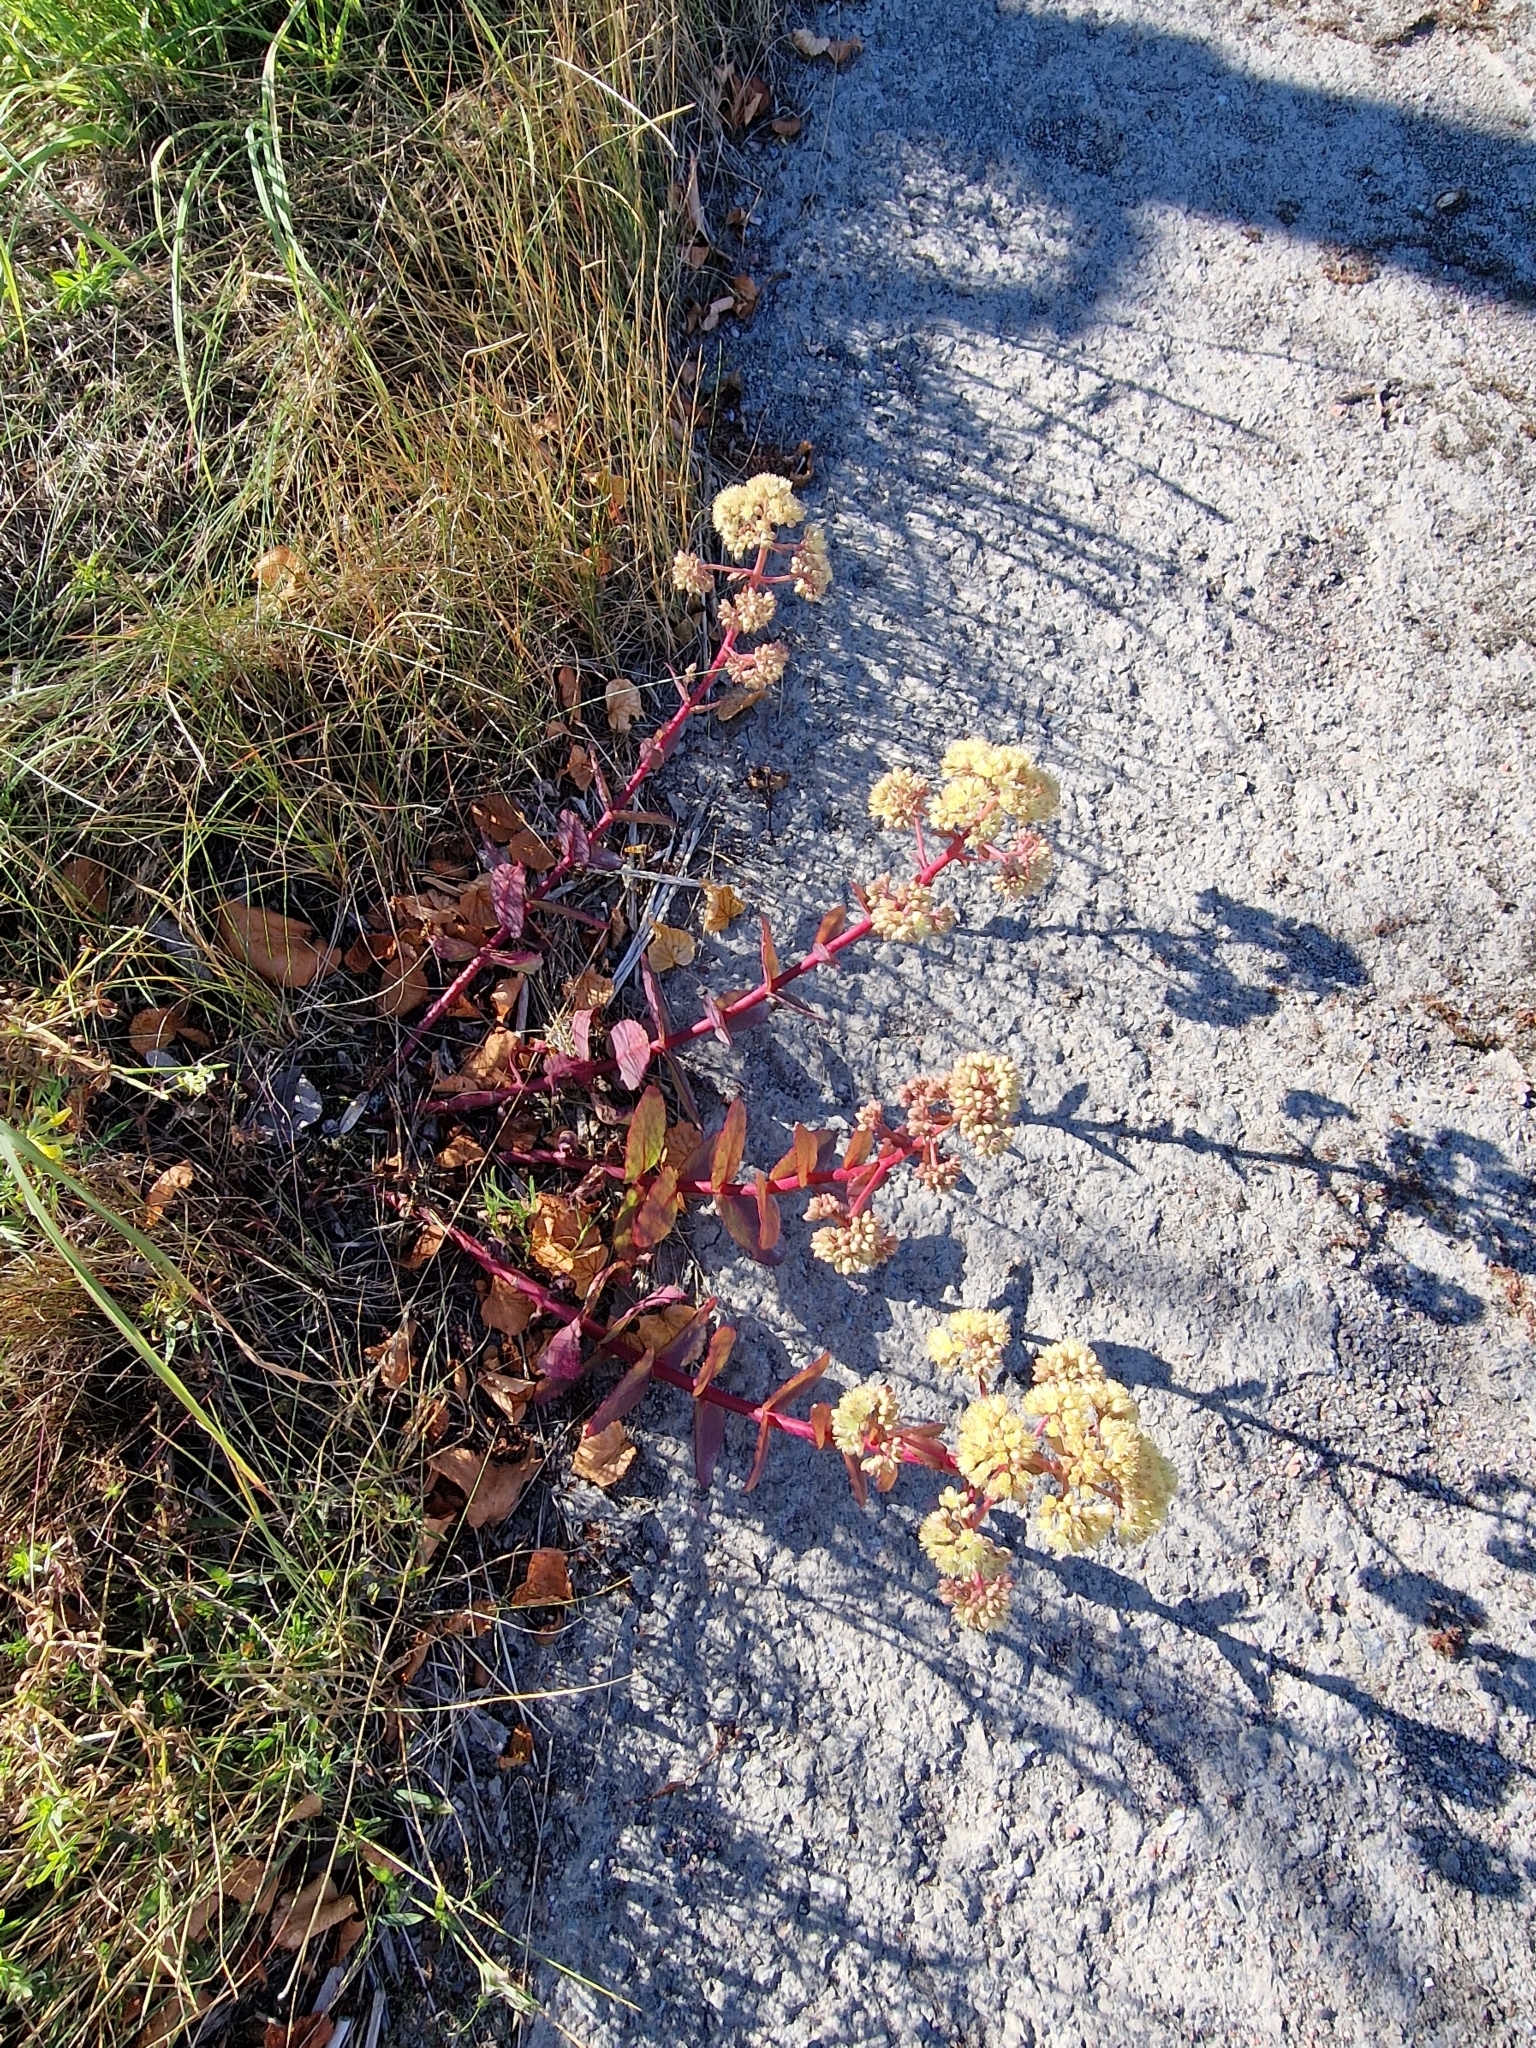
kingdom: Plantae
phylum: Tracheophyta
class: Magnoliopsida
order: Saxifragales
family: Crassulaceae
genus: Hylotelephium
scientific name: Hylotelephium maximum
